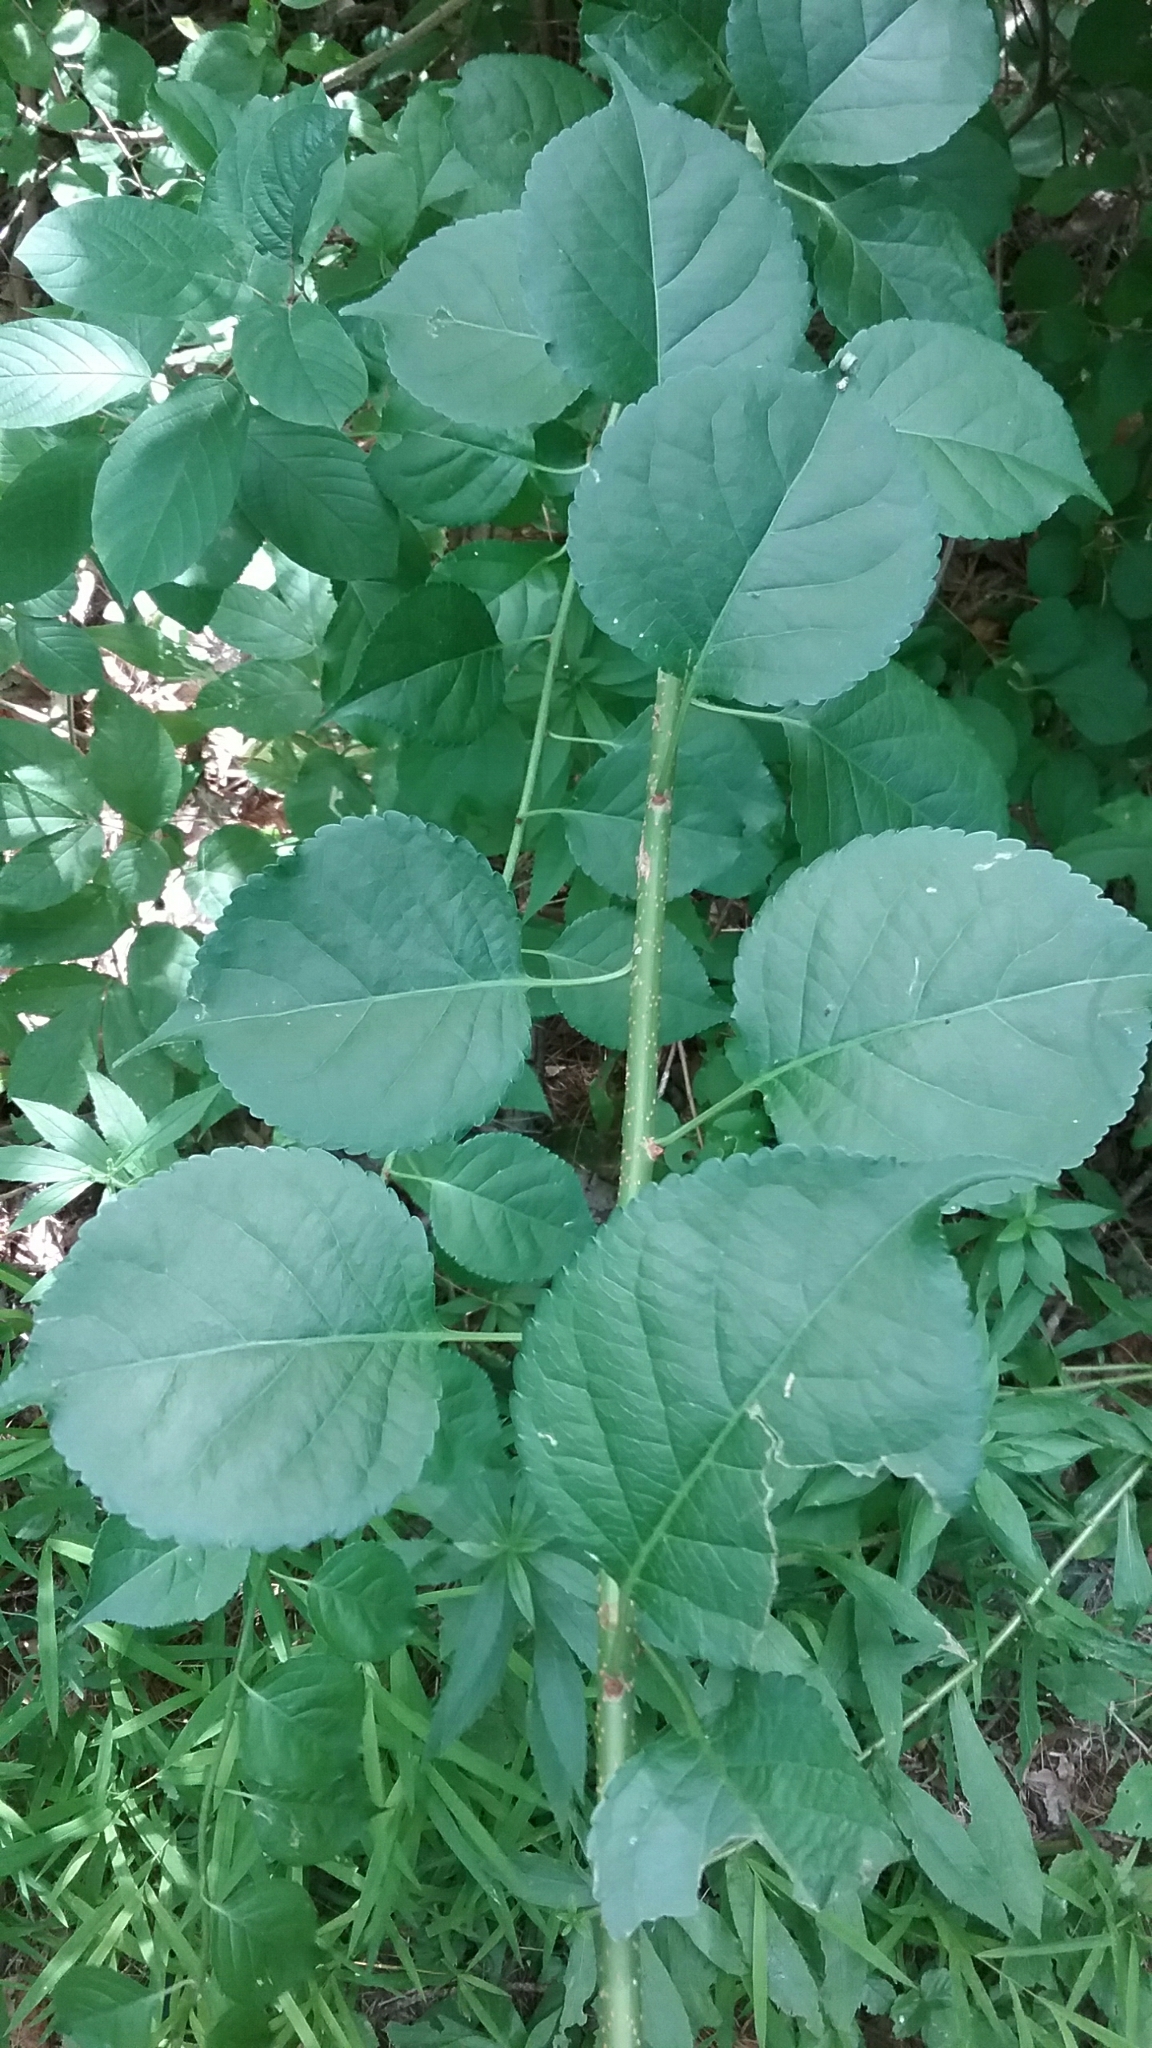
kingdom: Plantae
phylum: Tracheophyta
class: Magnoliopsida
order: Celastrales
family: Celastraceae
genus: Celastrus
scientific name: Celastrus orbiculatus
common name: Oriental bittersweet
